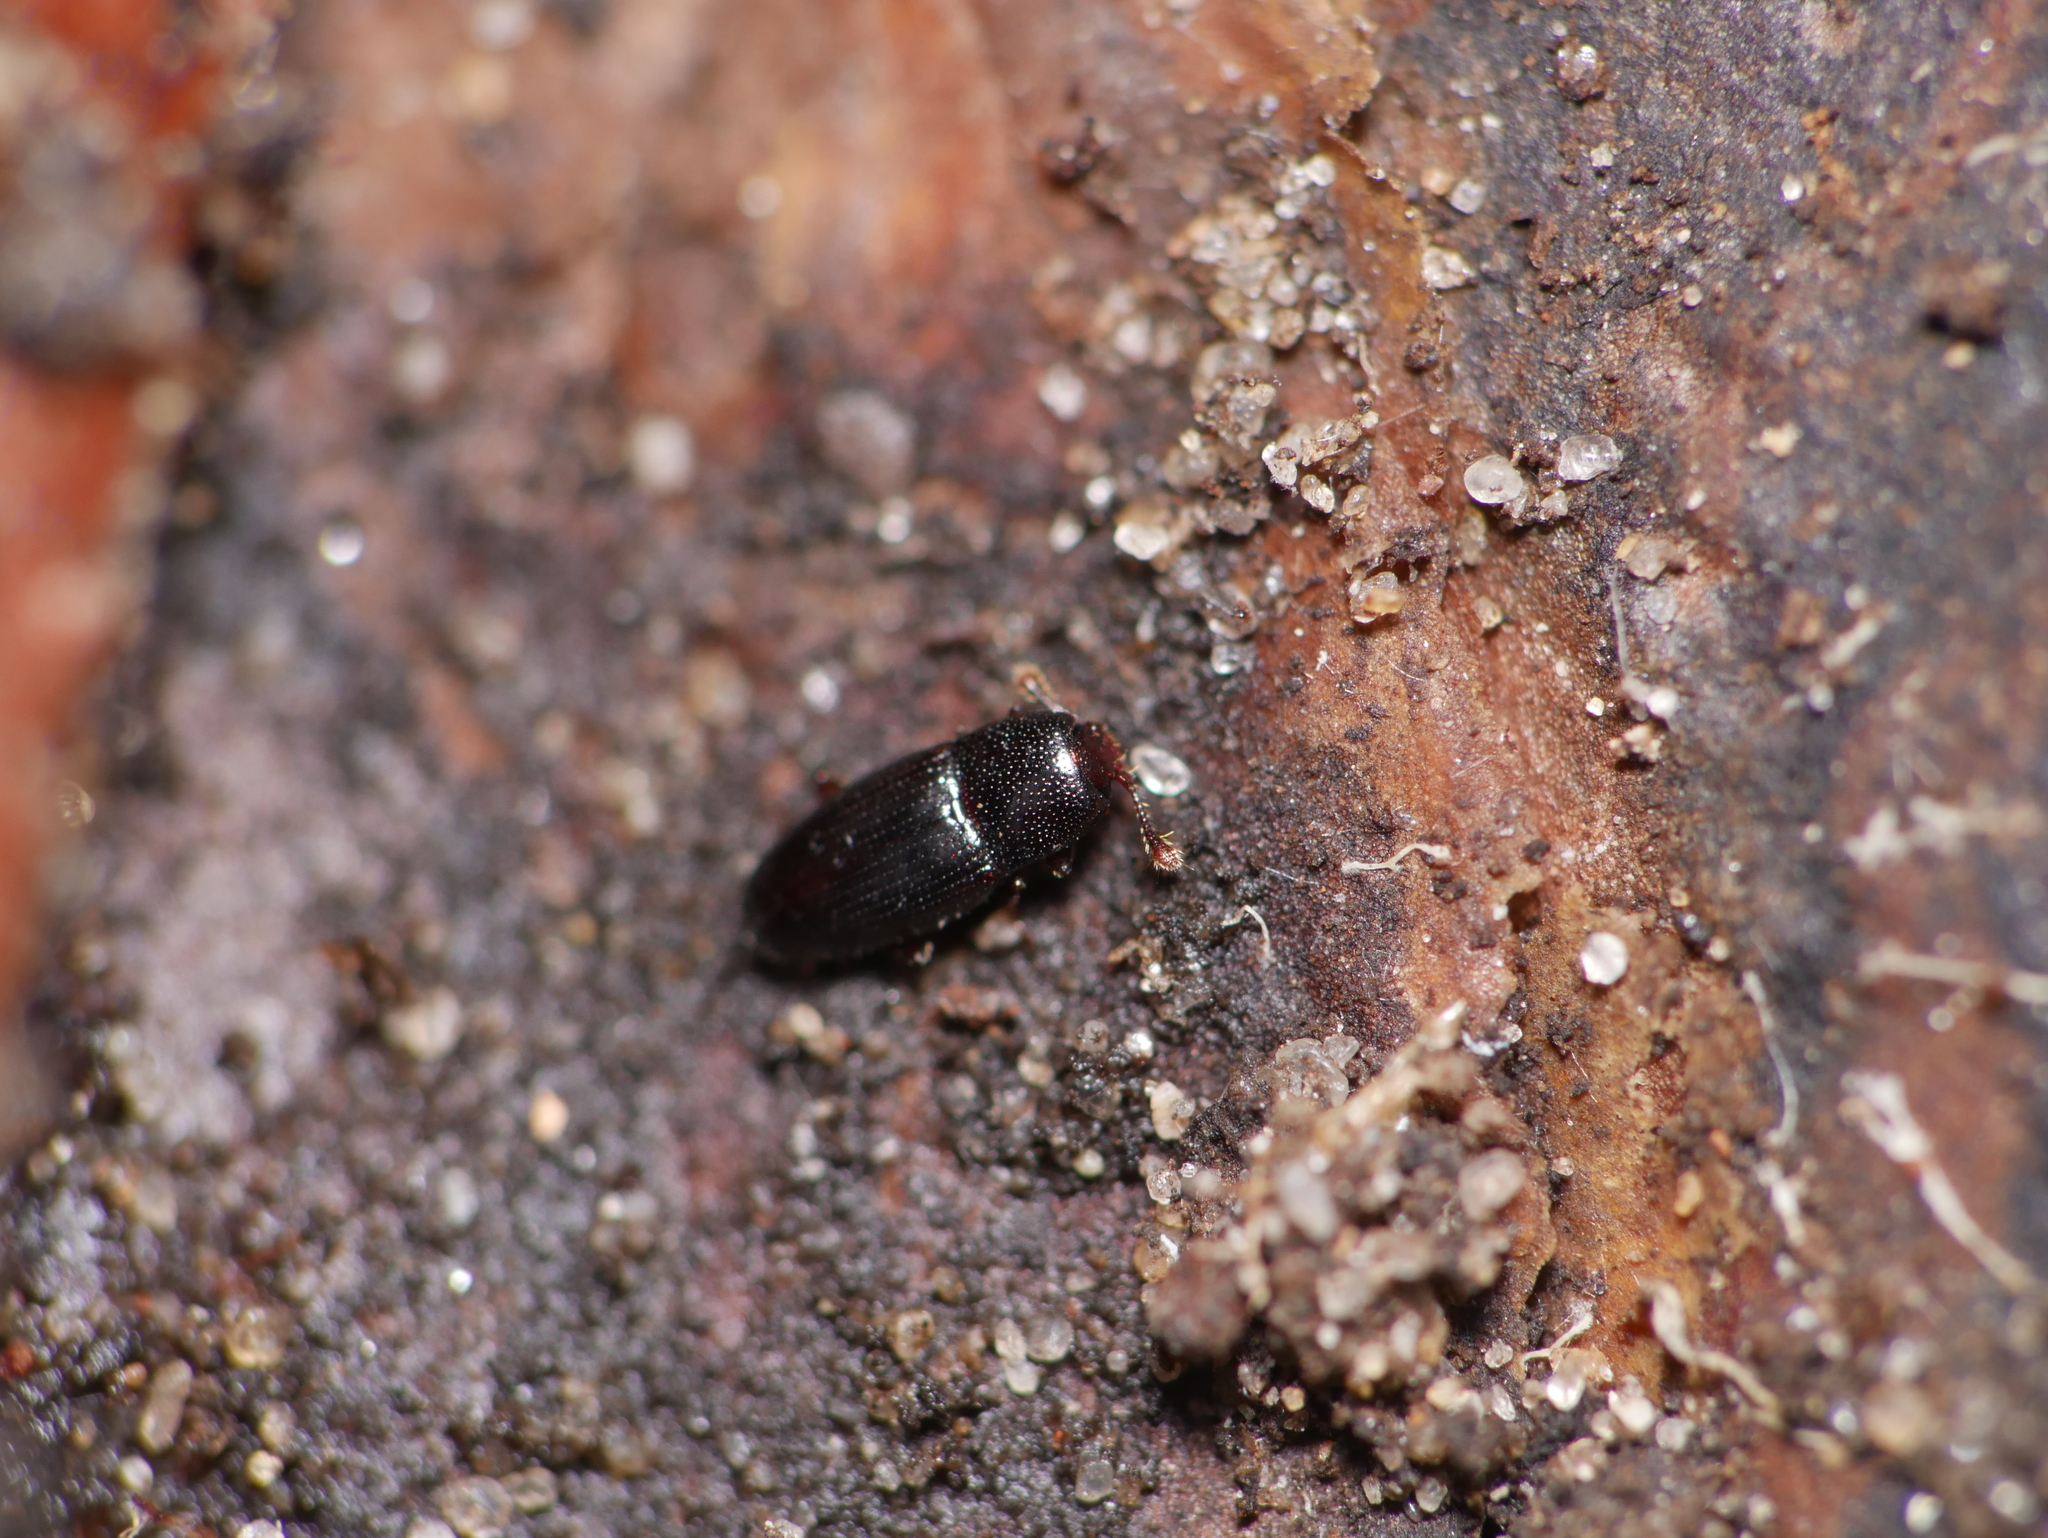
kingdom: Animalia
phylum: Arthropoda
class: Insecta
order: Coleoptera
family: Cerylonidae
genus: Cerylon
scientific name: Cerylon histeroides
